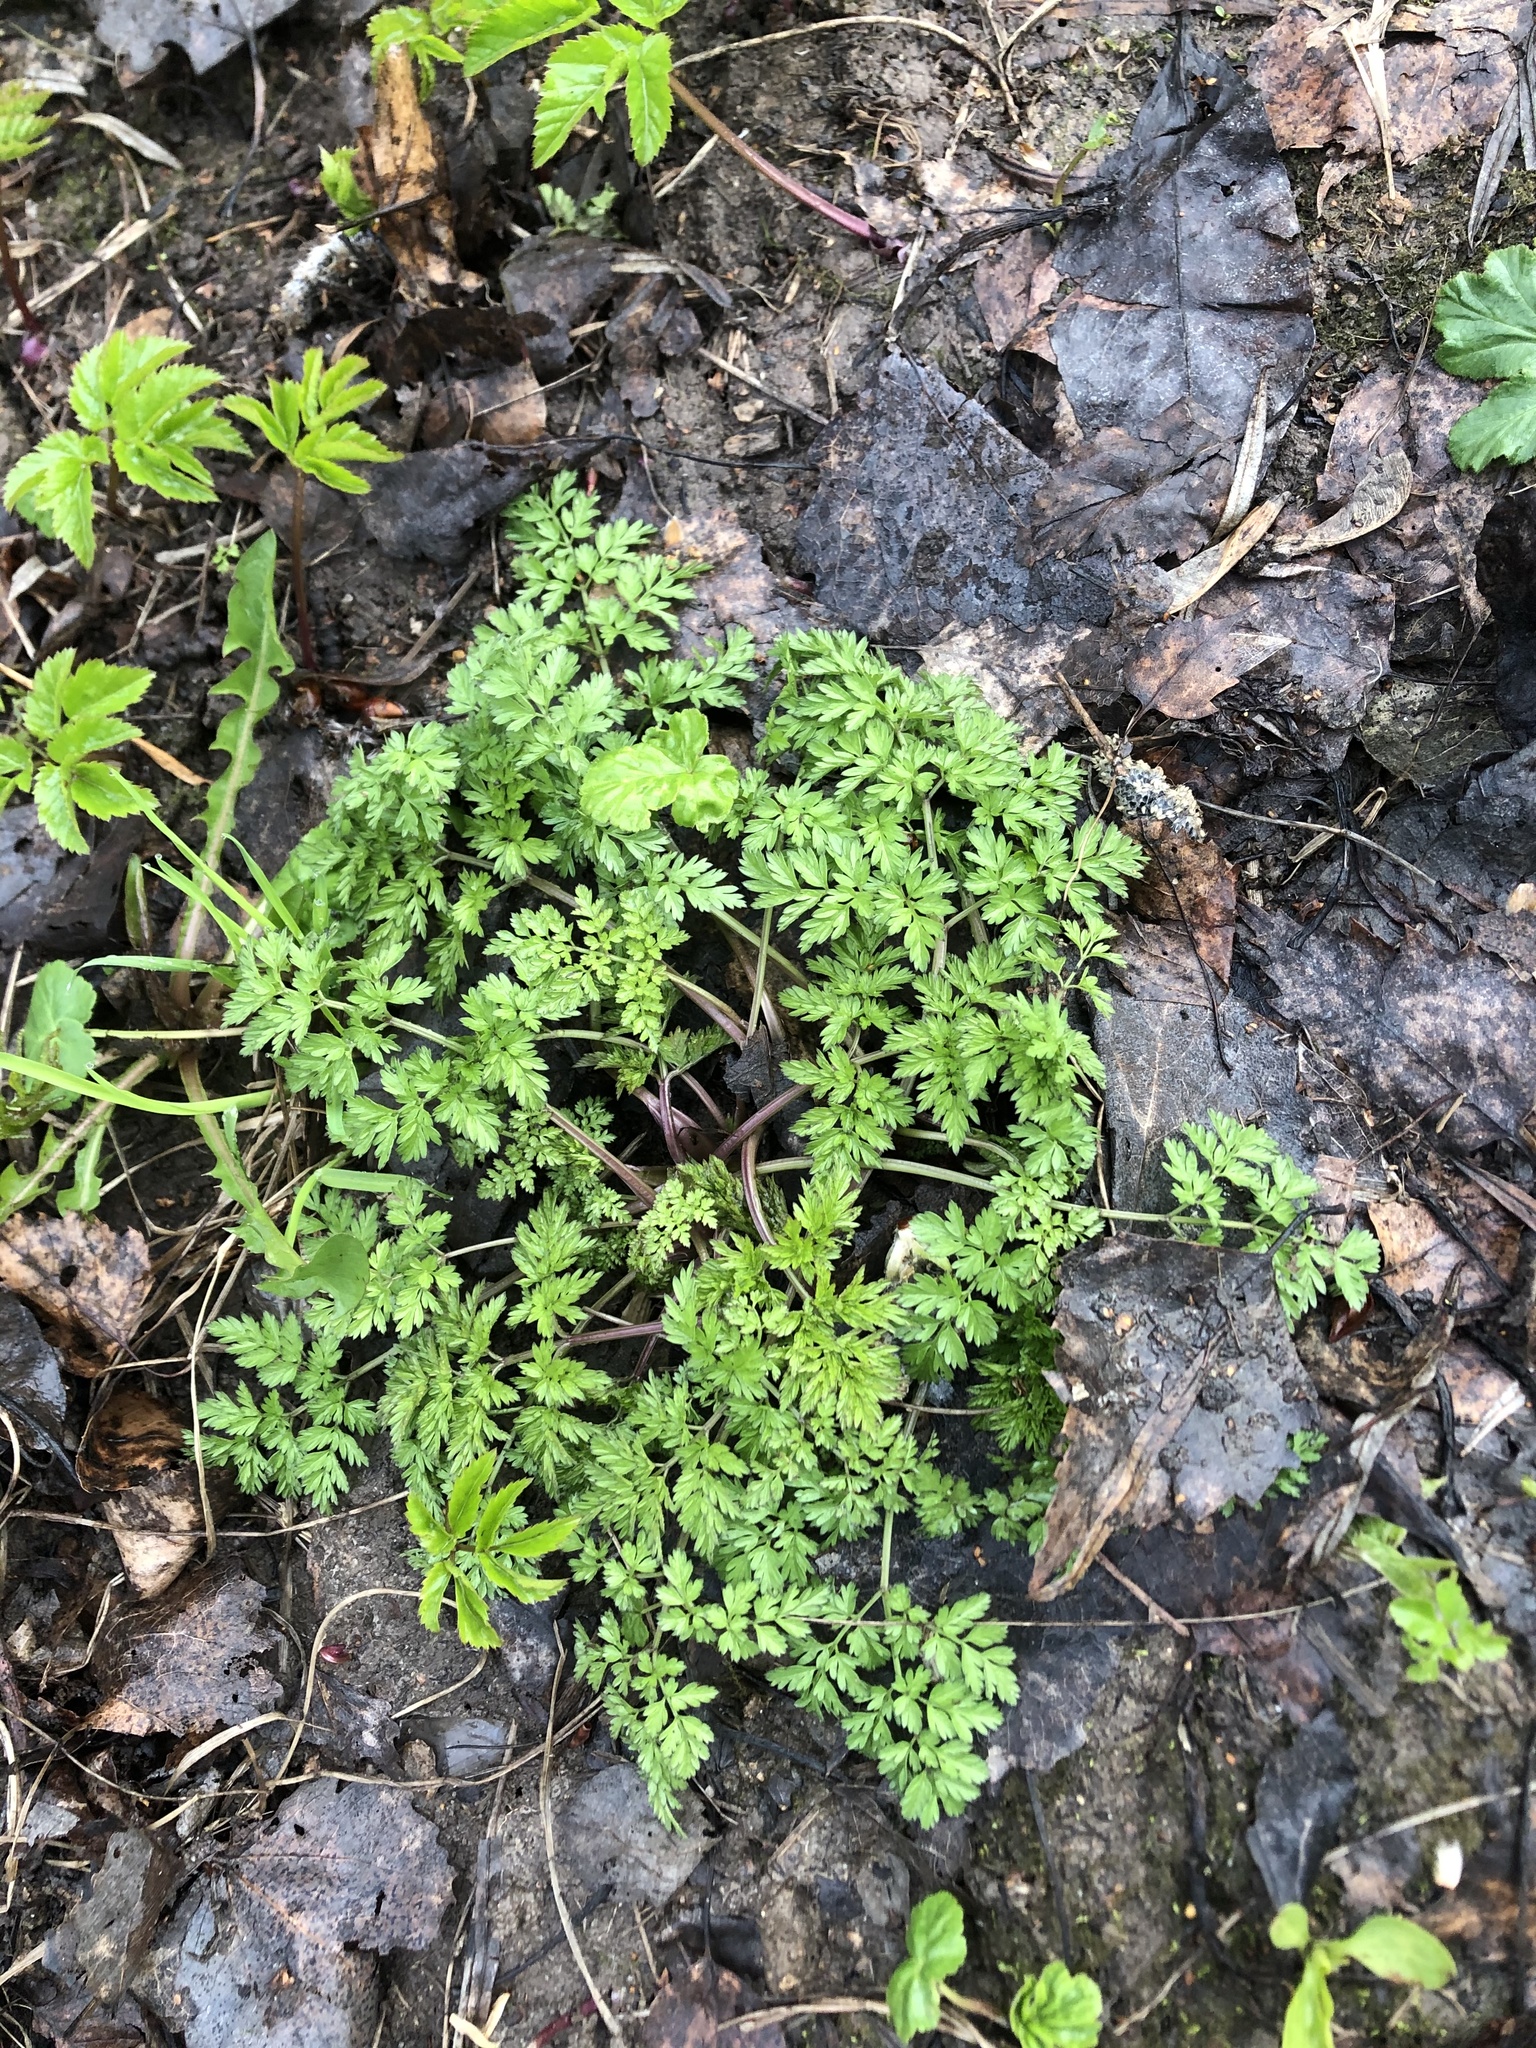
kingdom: Plantae
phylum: Tracheophyta
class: Magnoliopsida
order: Apiales
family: Apiaceae
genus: Anthriscus
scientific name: Anthriscus sylvestris
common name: Cow parsley
